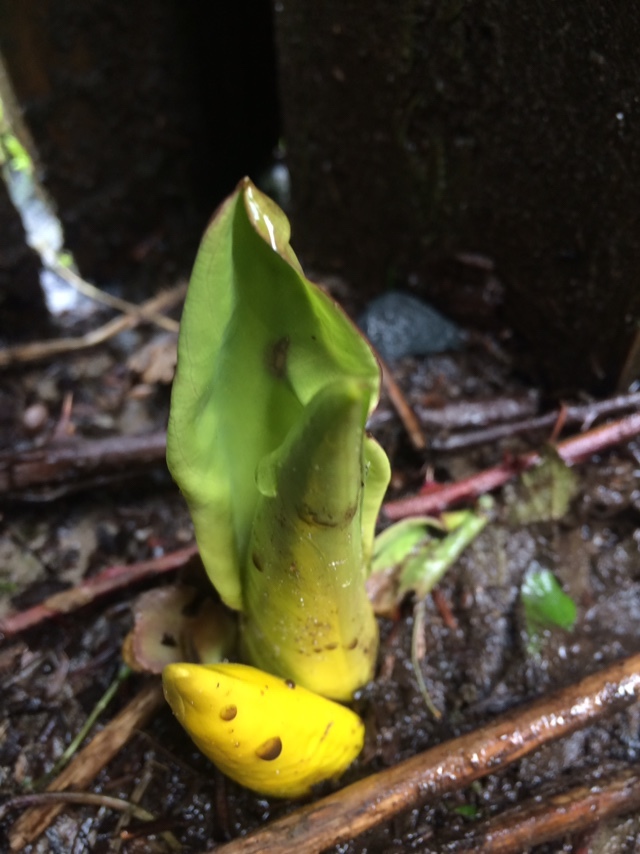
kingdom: Plantae
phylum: Tracheophyta
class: Liliopsida
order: Alismatales
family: Araceae
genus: Lysichiton
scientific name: Lysichiton americanus
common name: American skunk cabbage
